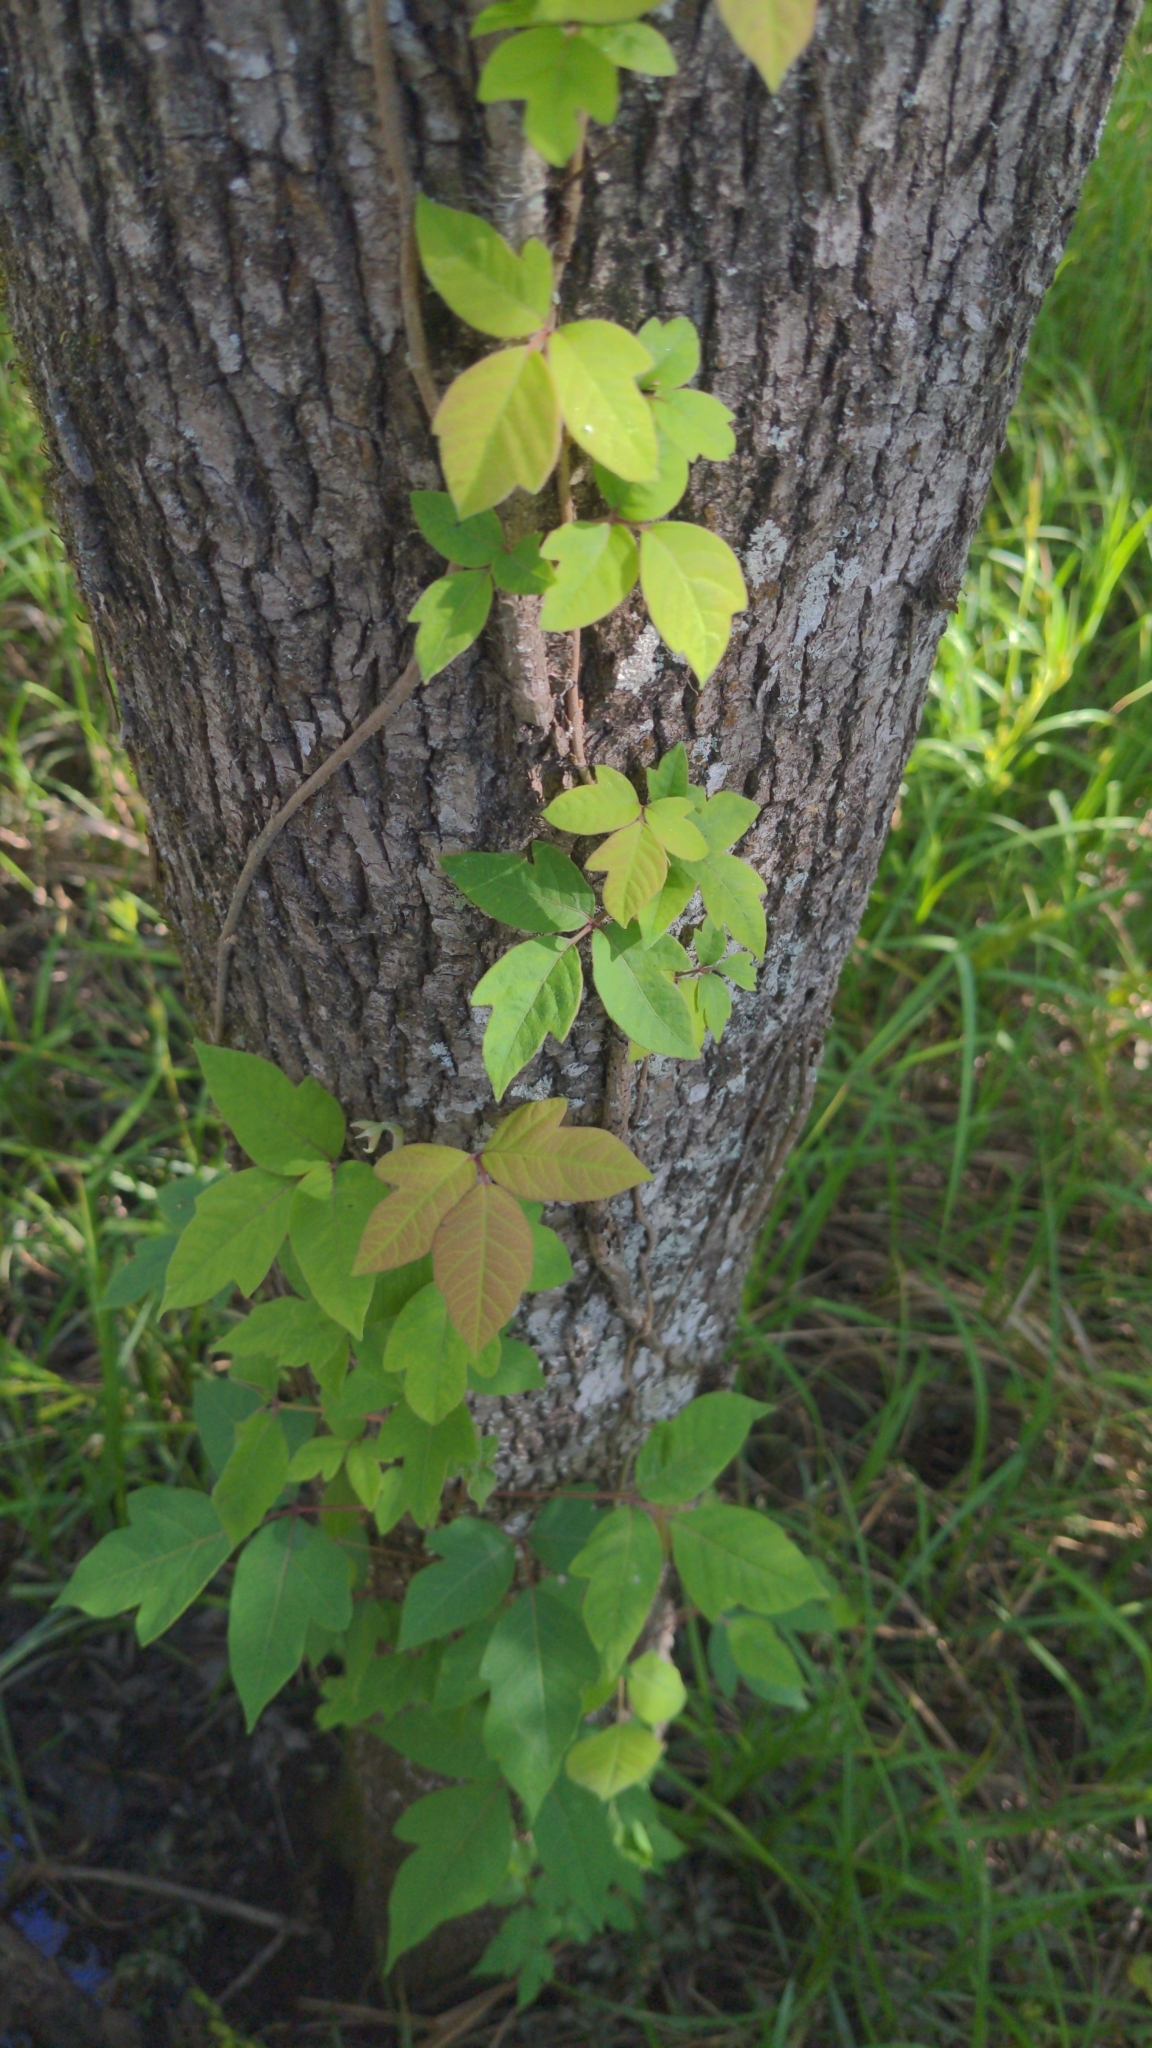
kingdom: Plantae
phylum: Tracheophyta
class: Magnoliopsida
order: Sapindales
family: Anacardiaceae
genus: Toxicodendron
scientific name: Toxicodendron radicans
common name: Poison ivy
